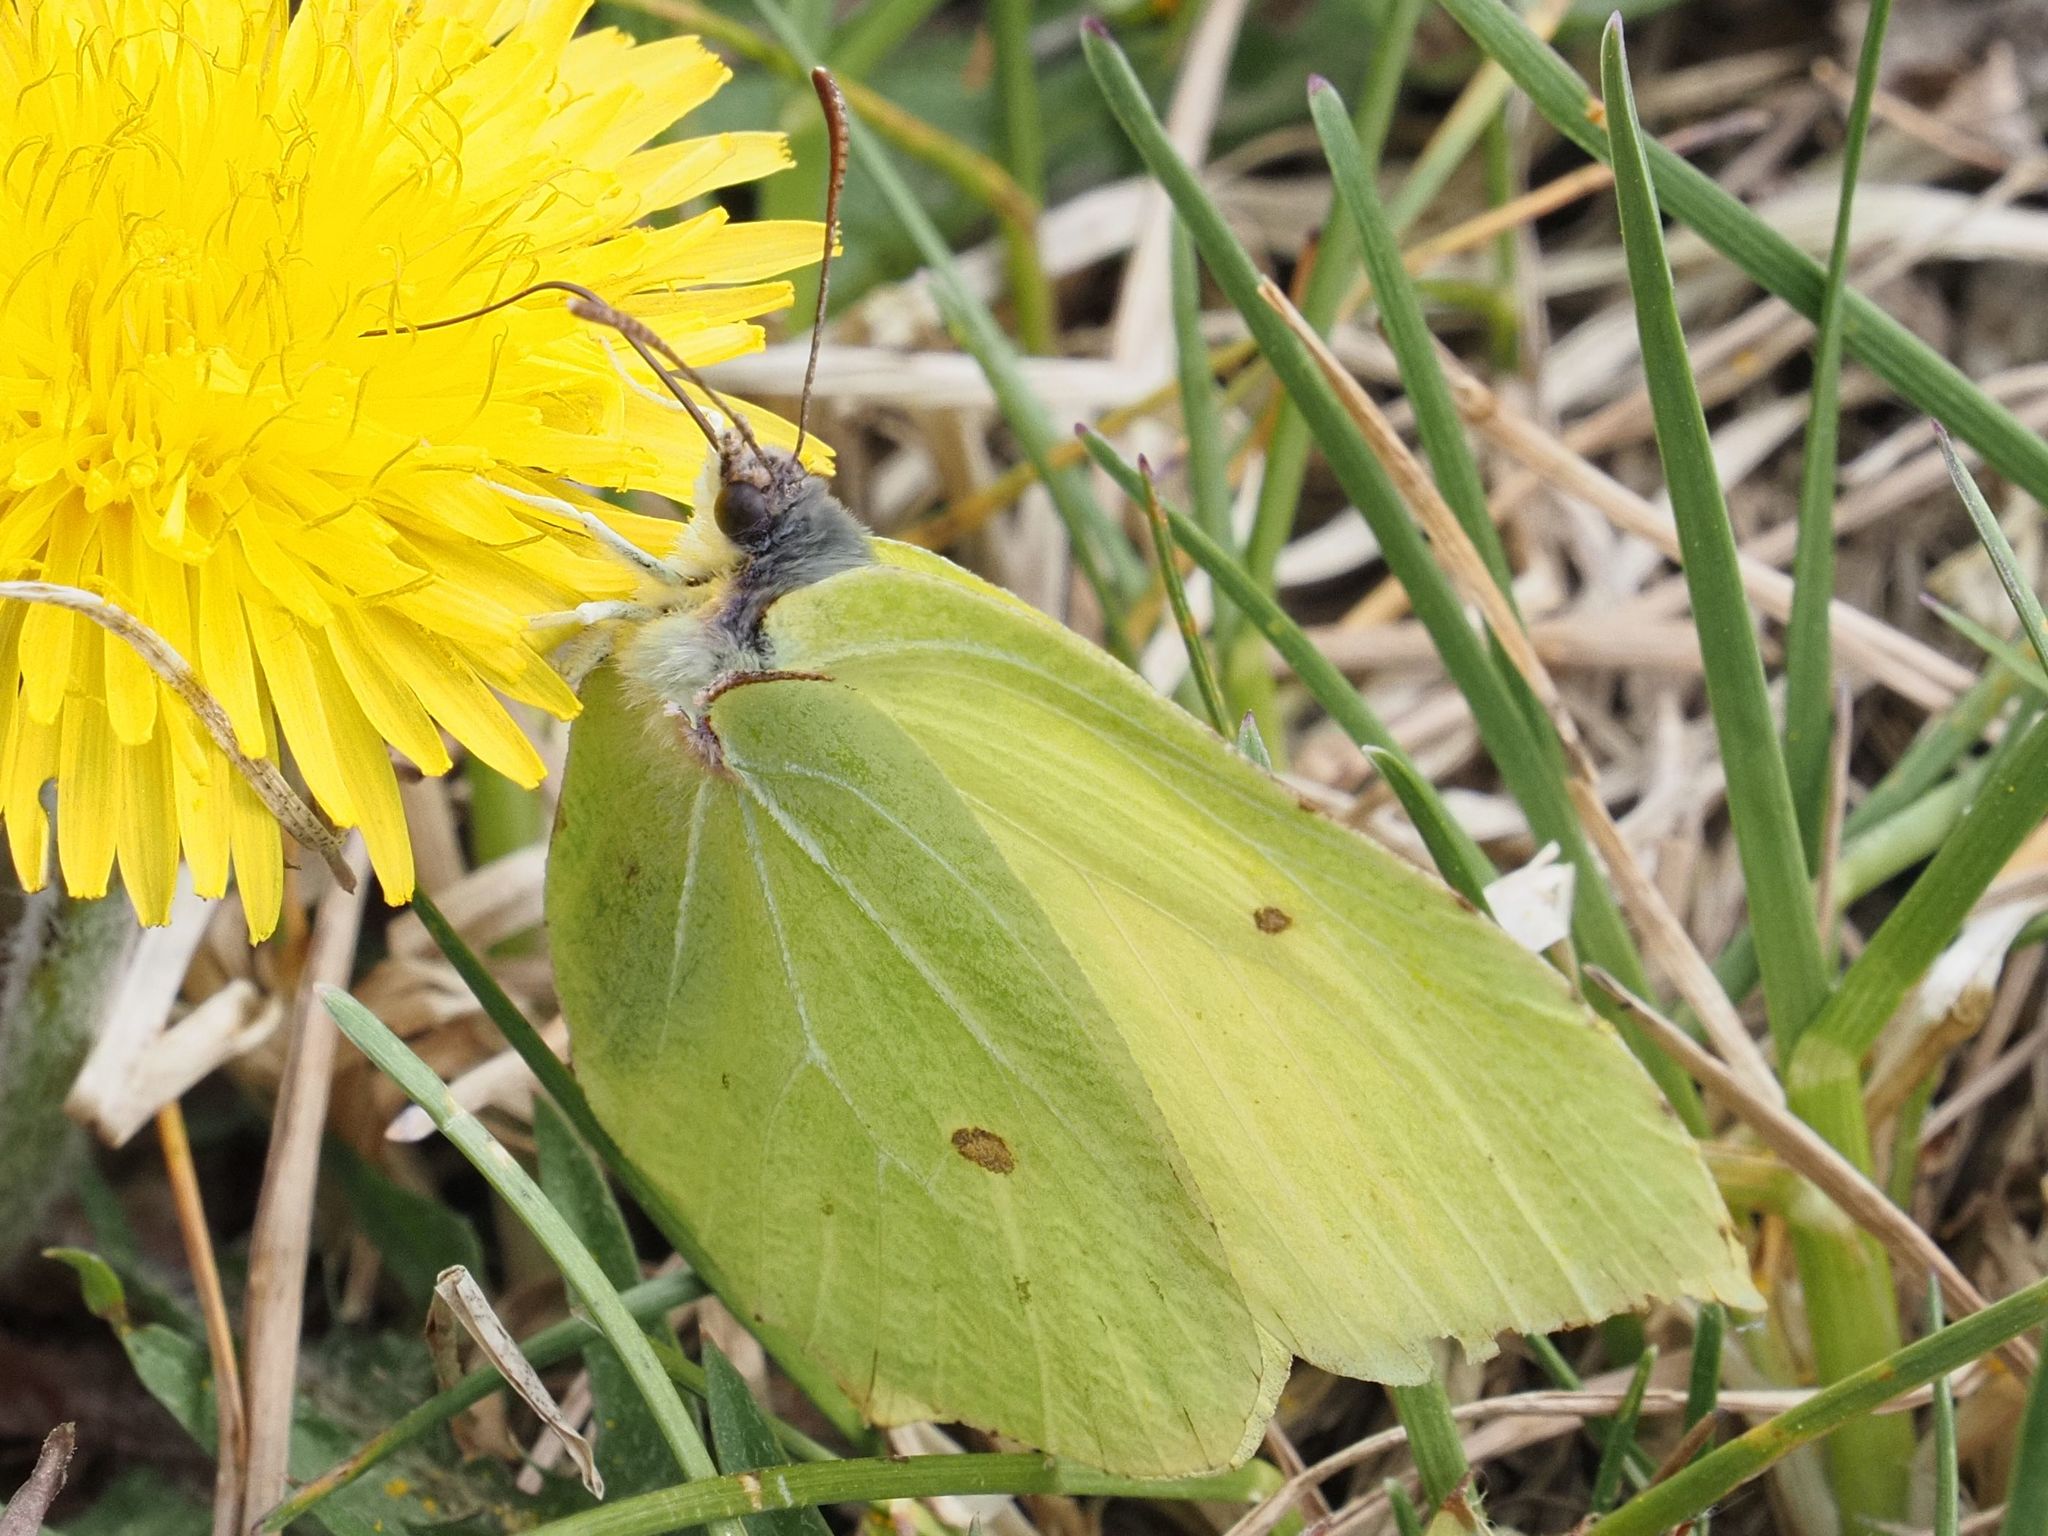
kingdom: Animalia
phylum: Arthropoda
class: Insecta
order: Lepidoptera
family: Pieridae
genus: Gonepteryx
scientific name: Gonepteryx rhamni
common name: Brimstone
